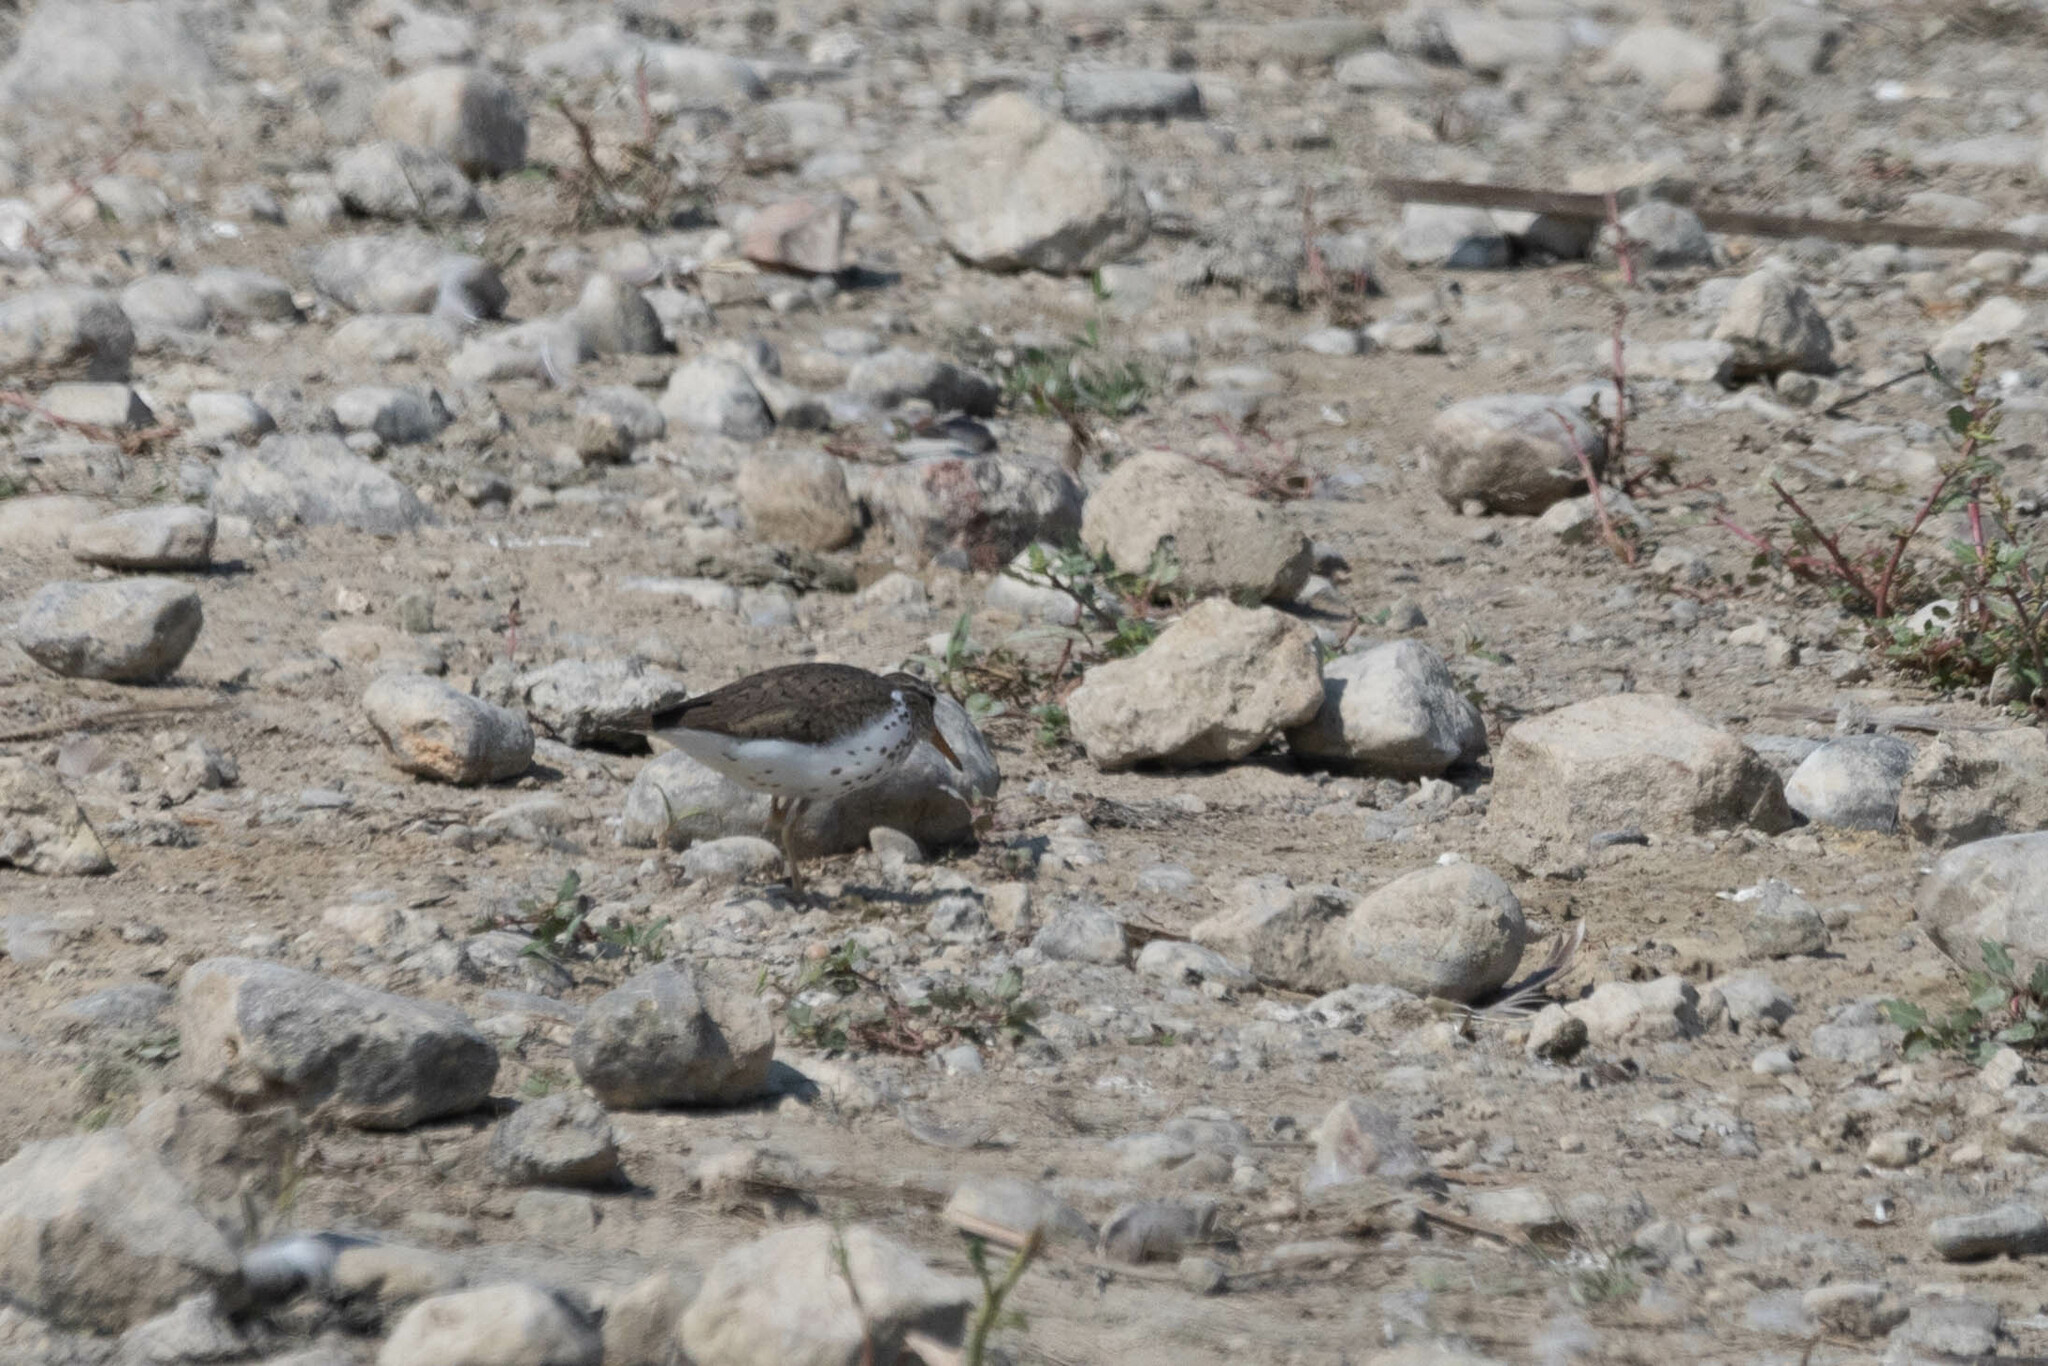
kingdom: Animalia
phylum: Chordata
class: Aves
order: Charadriiformes
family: Scolopacidae
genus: Actitis
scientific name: Actitis macularius
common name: Spotted sandpiper
